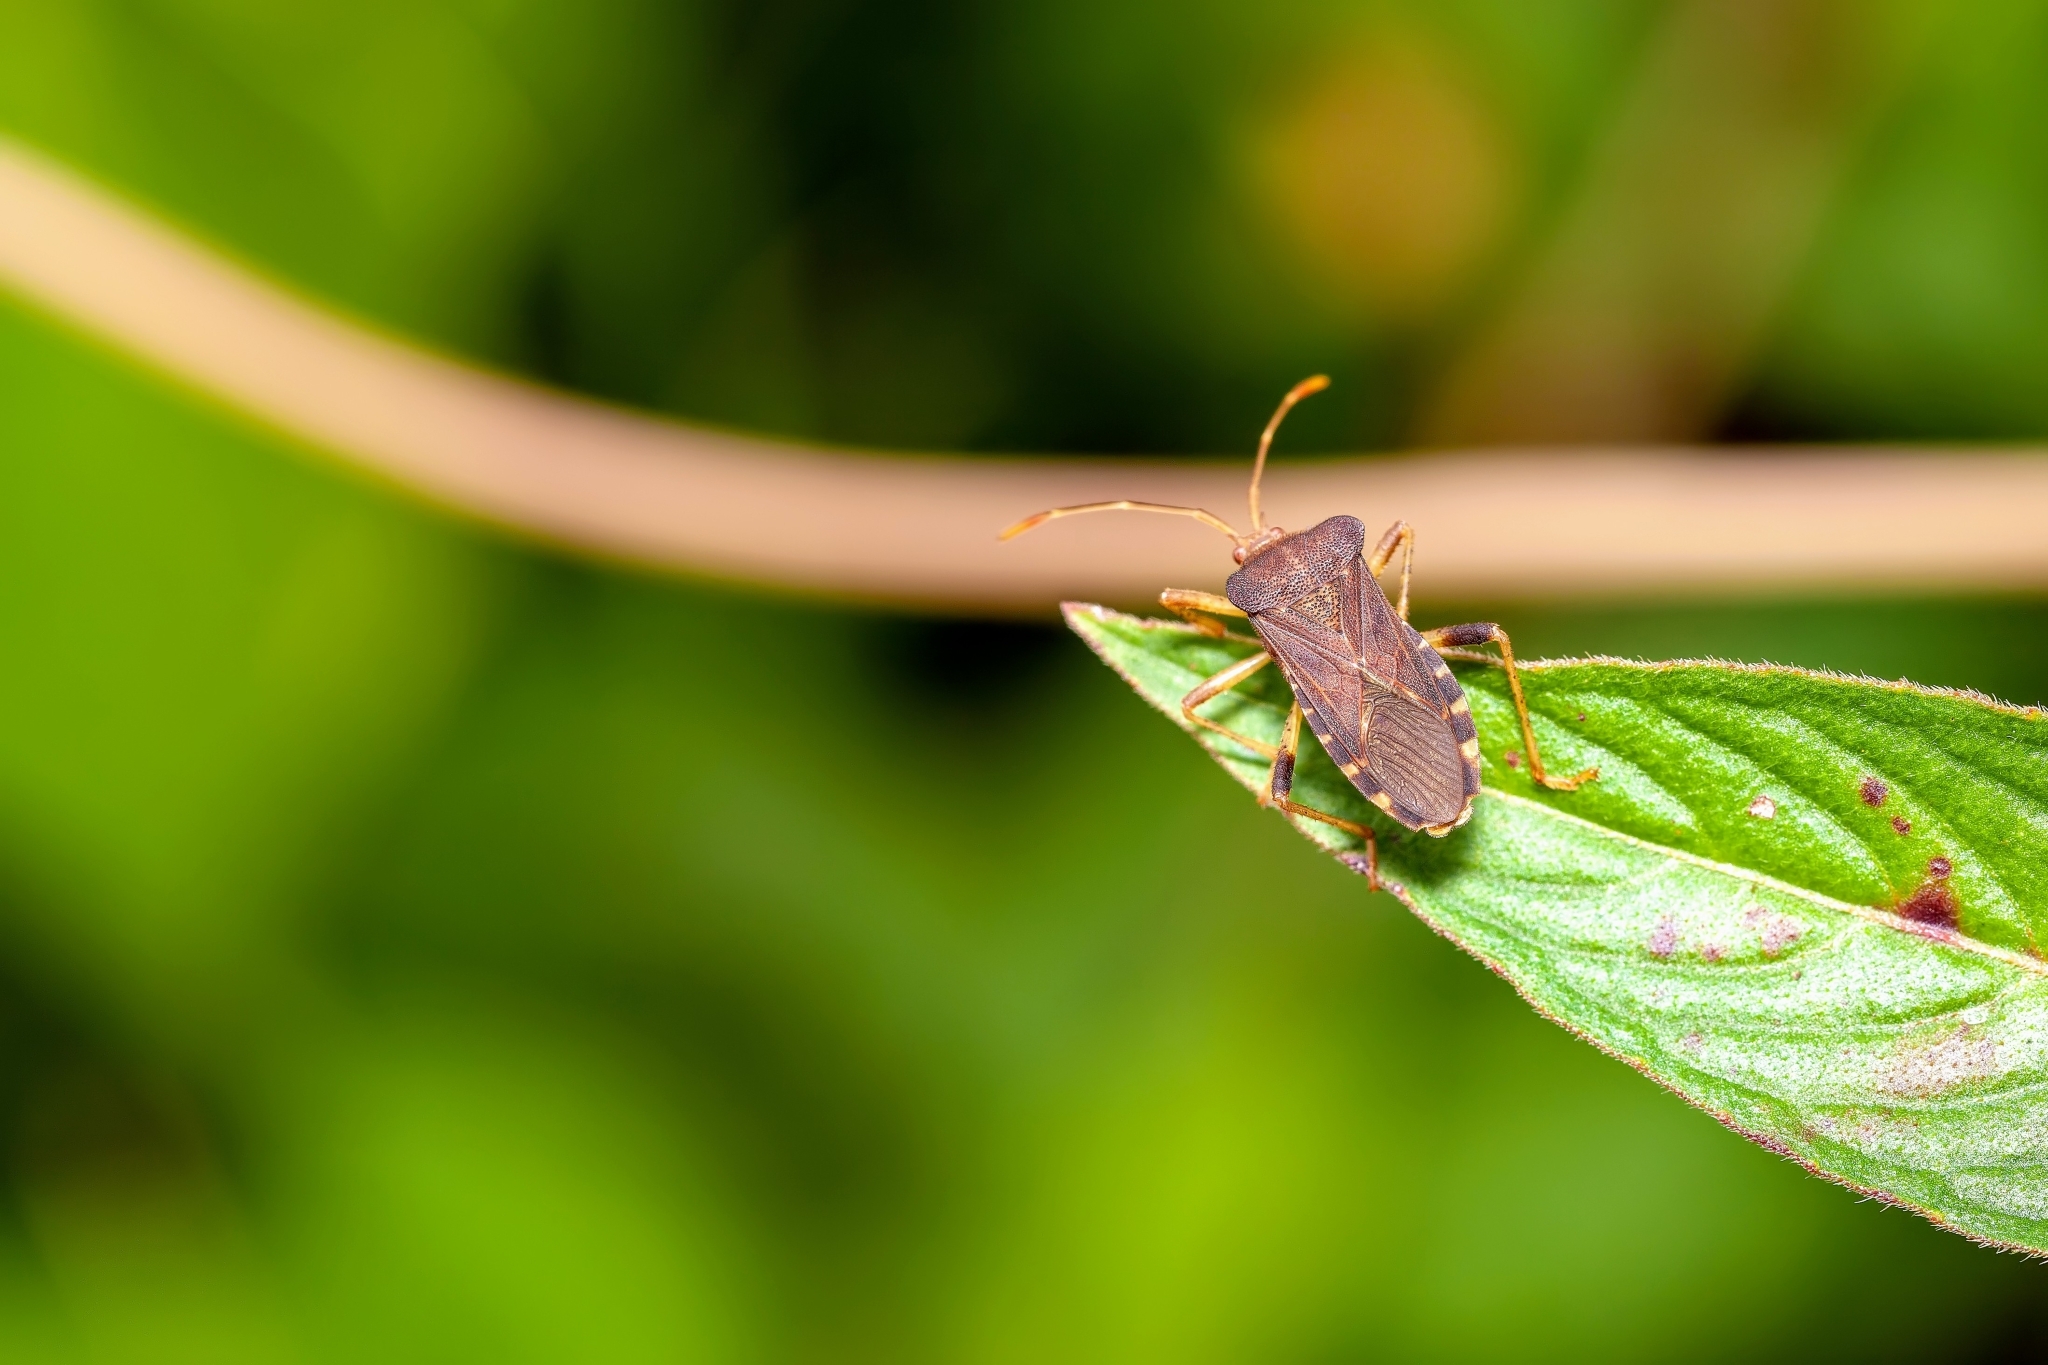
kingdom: Animalia
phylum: Arthropoda
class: Insecta
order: Hemiptera
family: Coreidae
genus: Anasa
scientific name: Anasa scorbutica
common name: Squash bug
